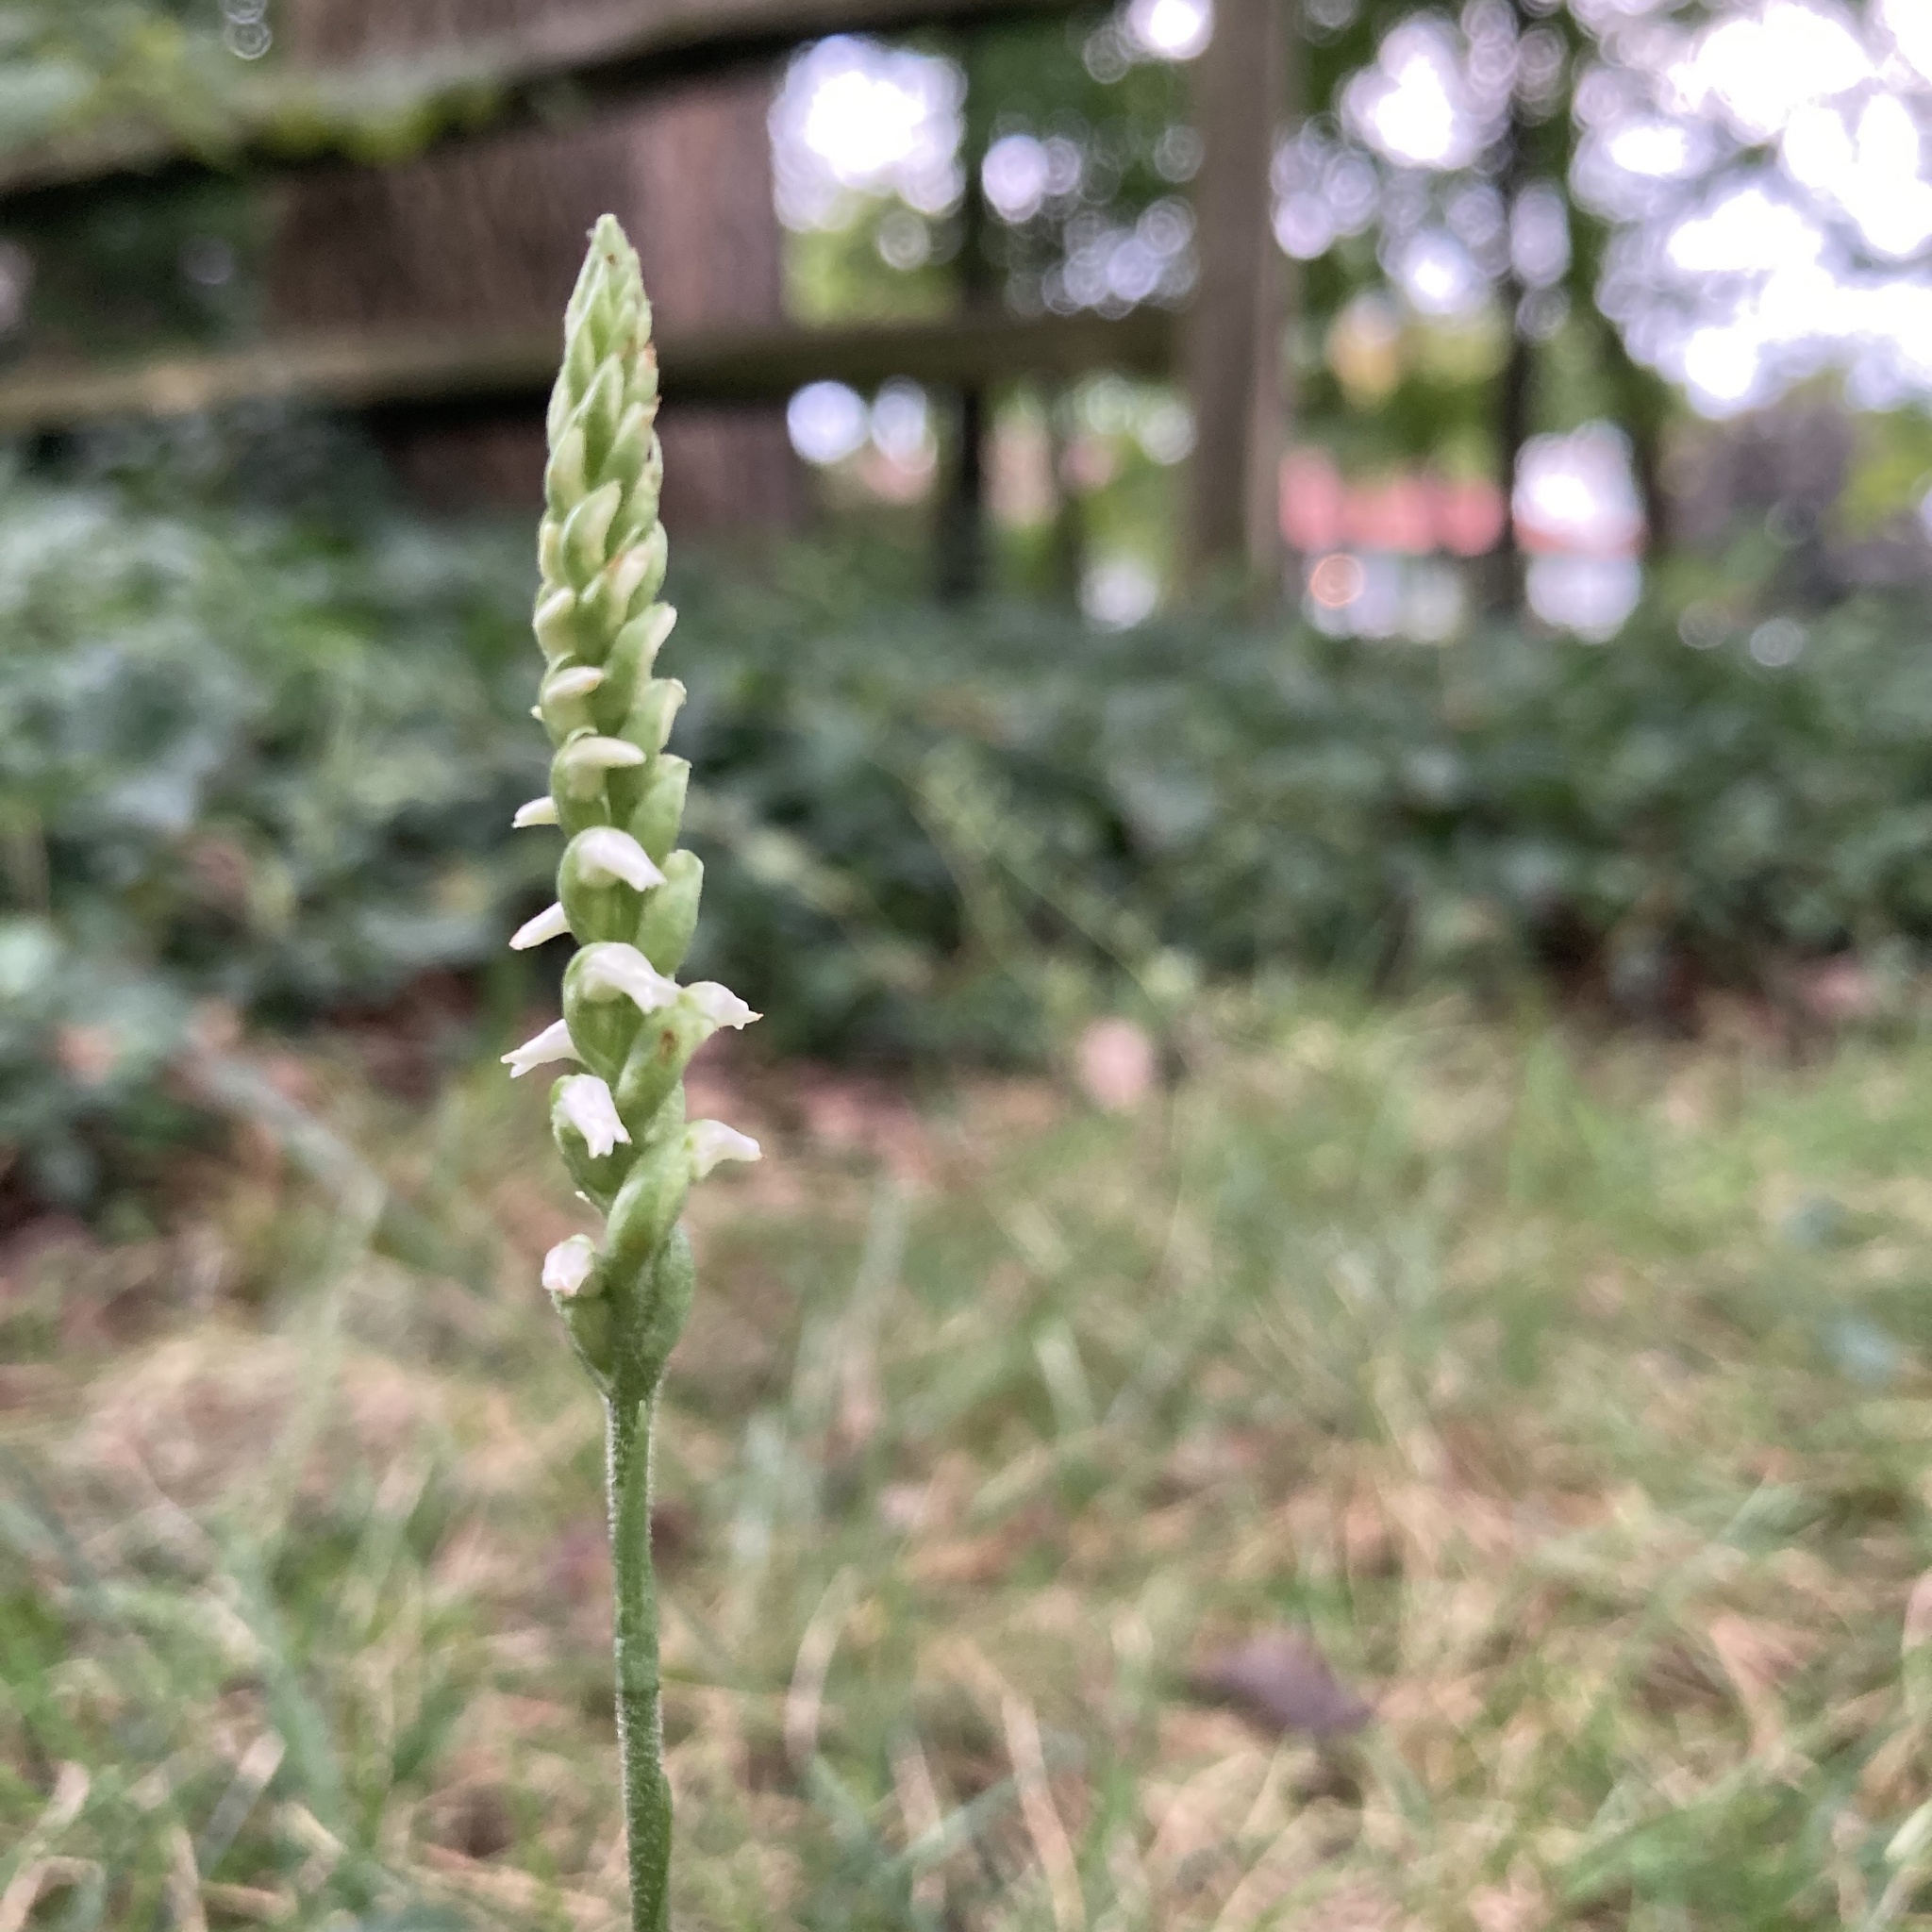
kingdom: Plantae
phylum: Tracheophyta
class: Liliopsida
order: Asparagales
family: Orchidaceae
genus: Spiranthes
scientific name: Spiranthes ovalis
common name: October ladies'-tresses
